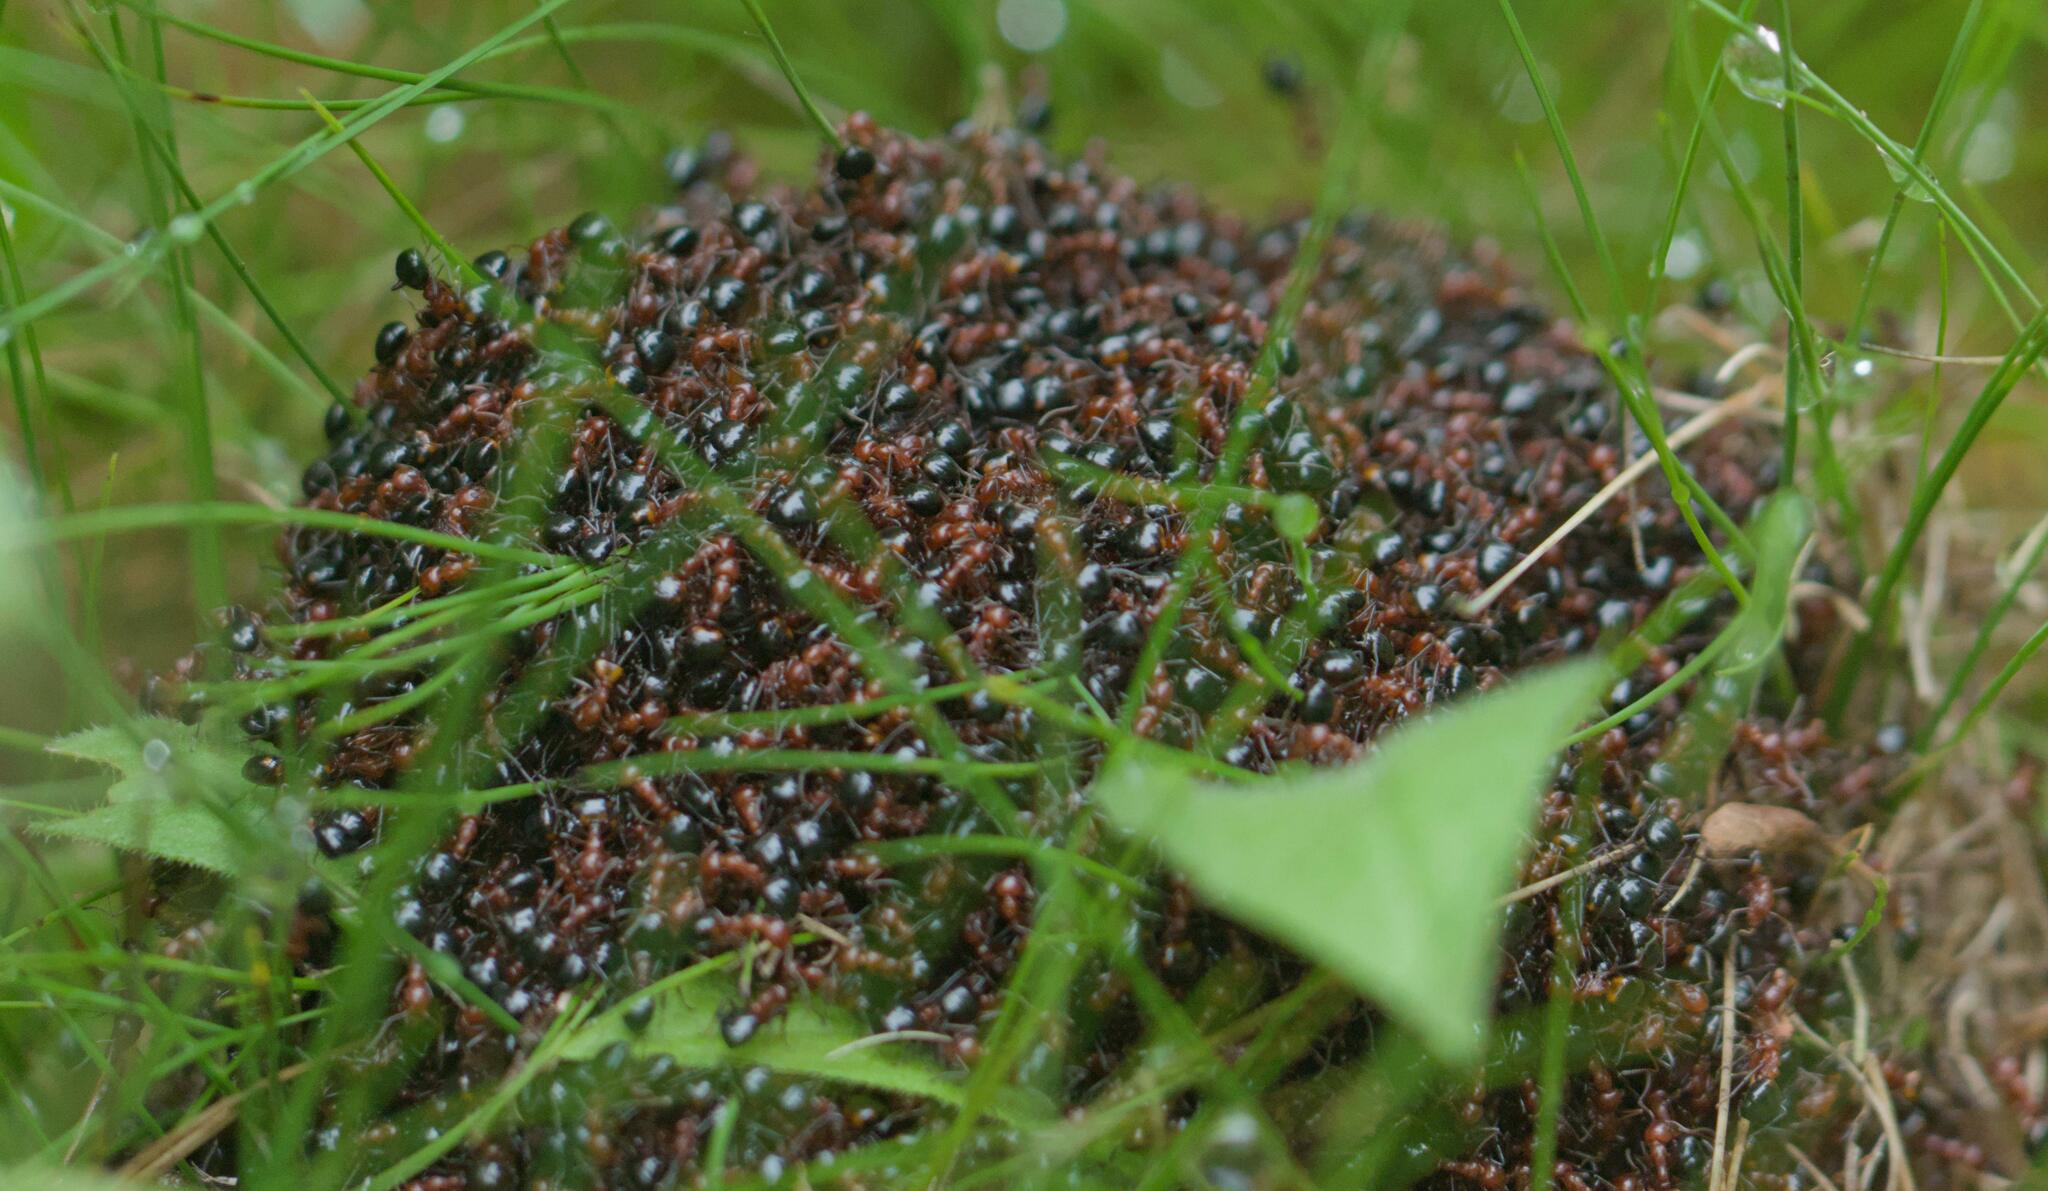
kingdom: Animalia
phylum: Arthropoda
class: Insecta
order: Hymenoptera
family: Formicidae
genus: Dolichoderus
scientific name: Dolichoderus mariae
